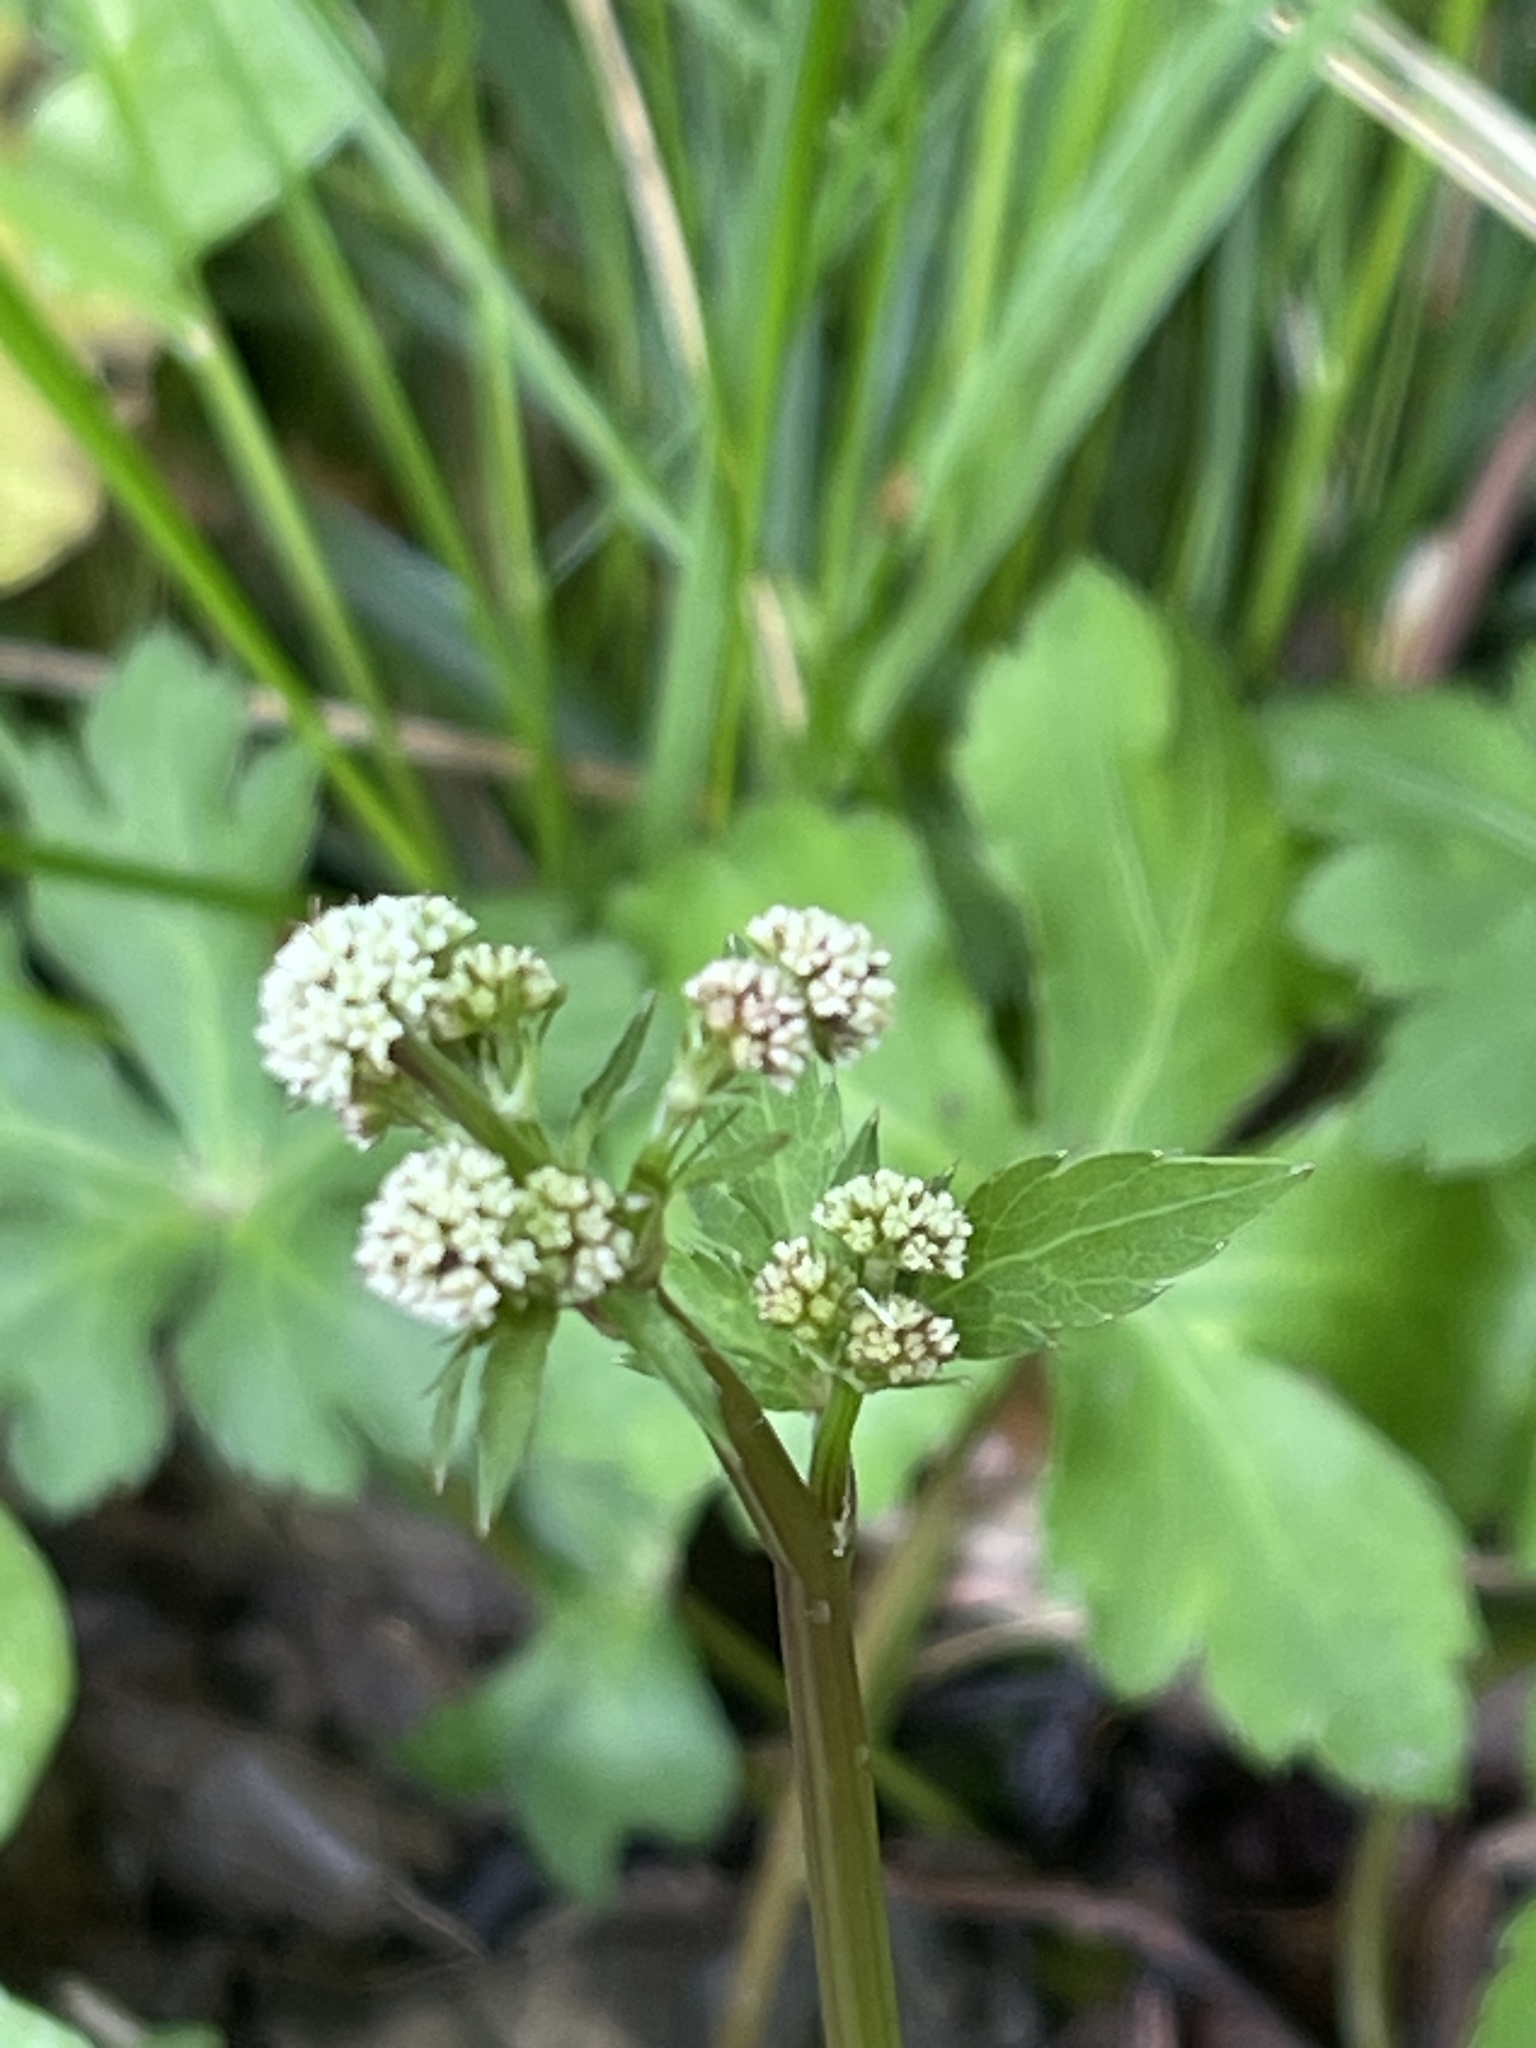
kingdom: Plantae
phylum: Tracheophyta
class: Magnoliopsida
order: Apiales
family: Apiaceae
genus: Sanicula
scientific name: Sanicula europaea
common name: Sanicle
